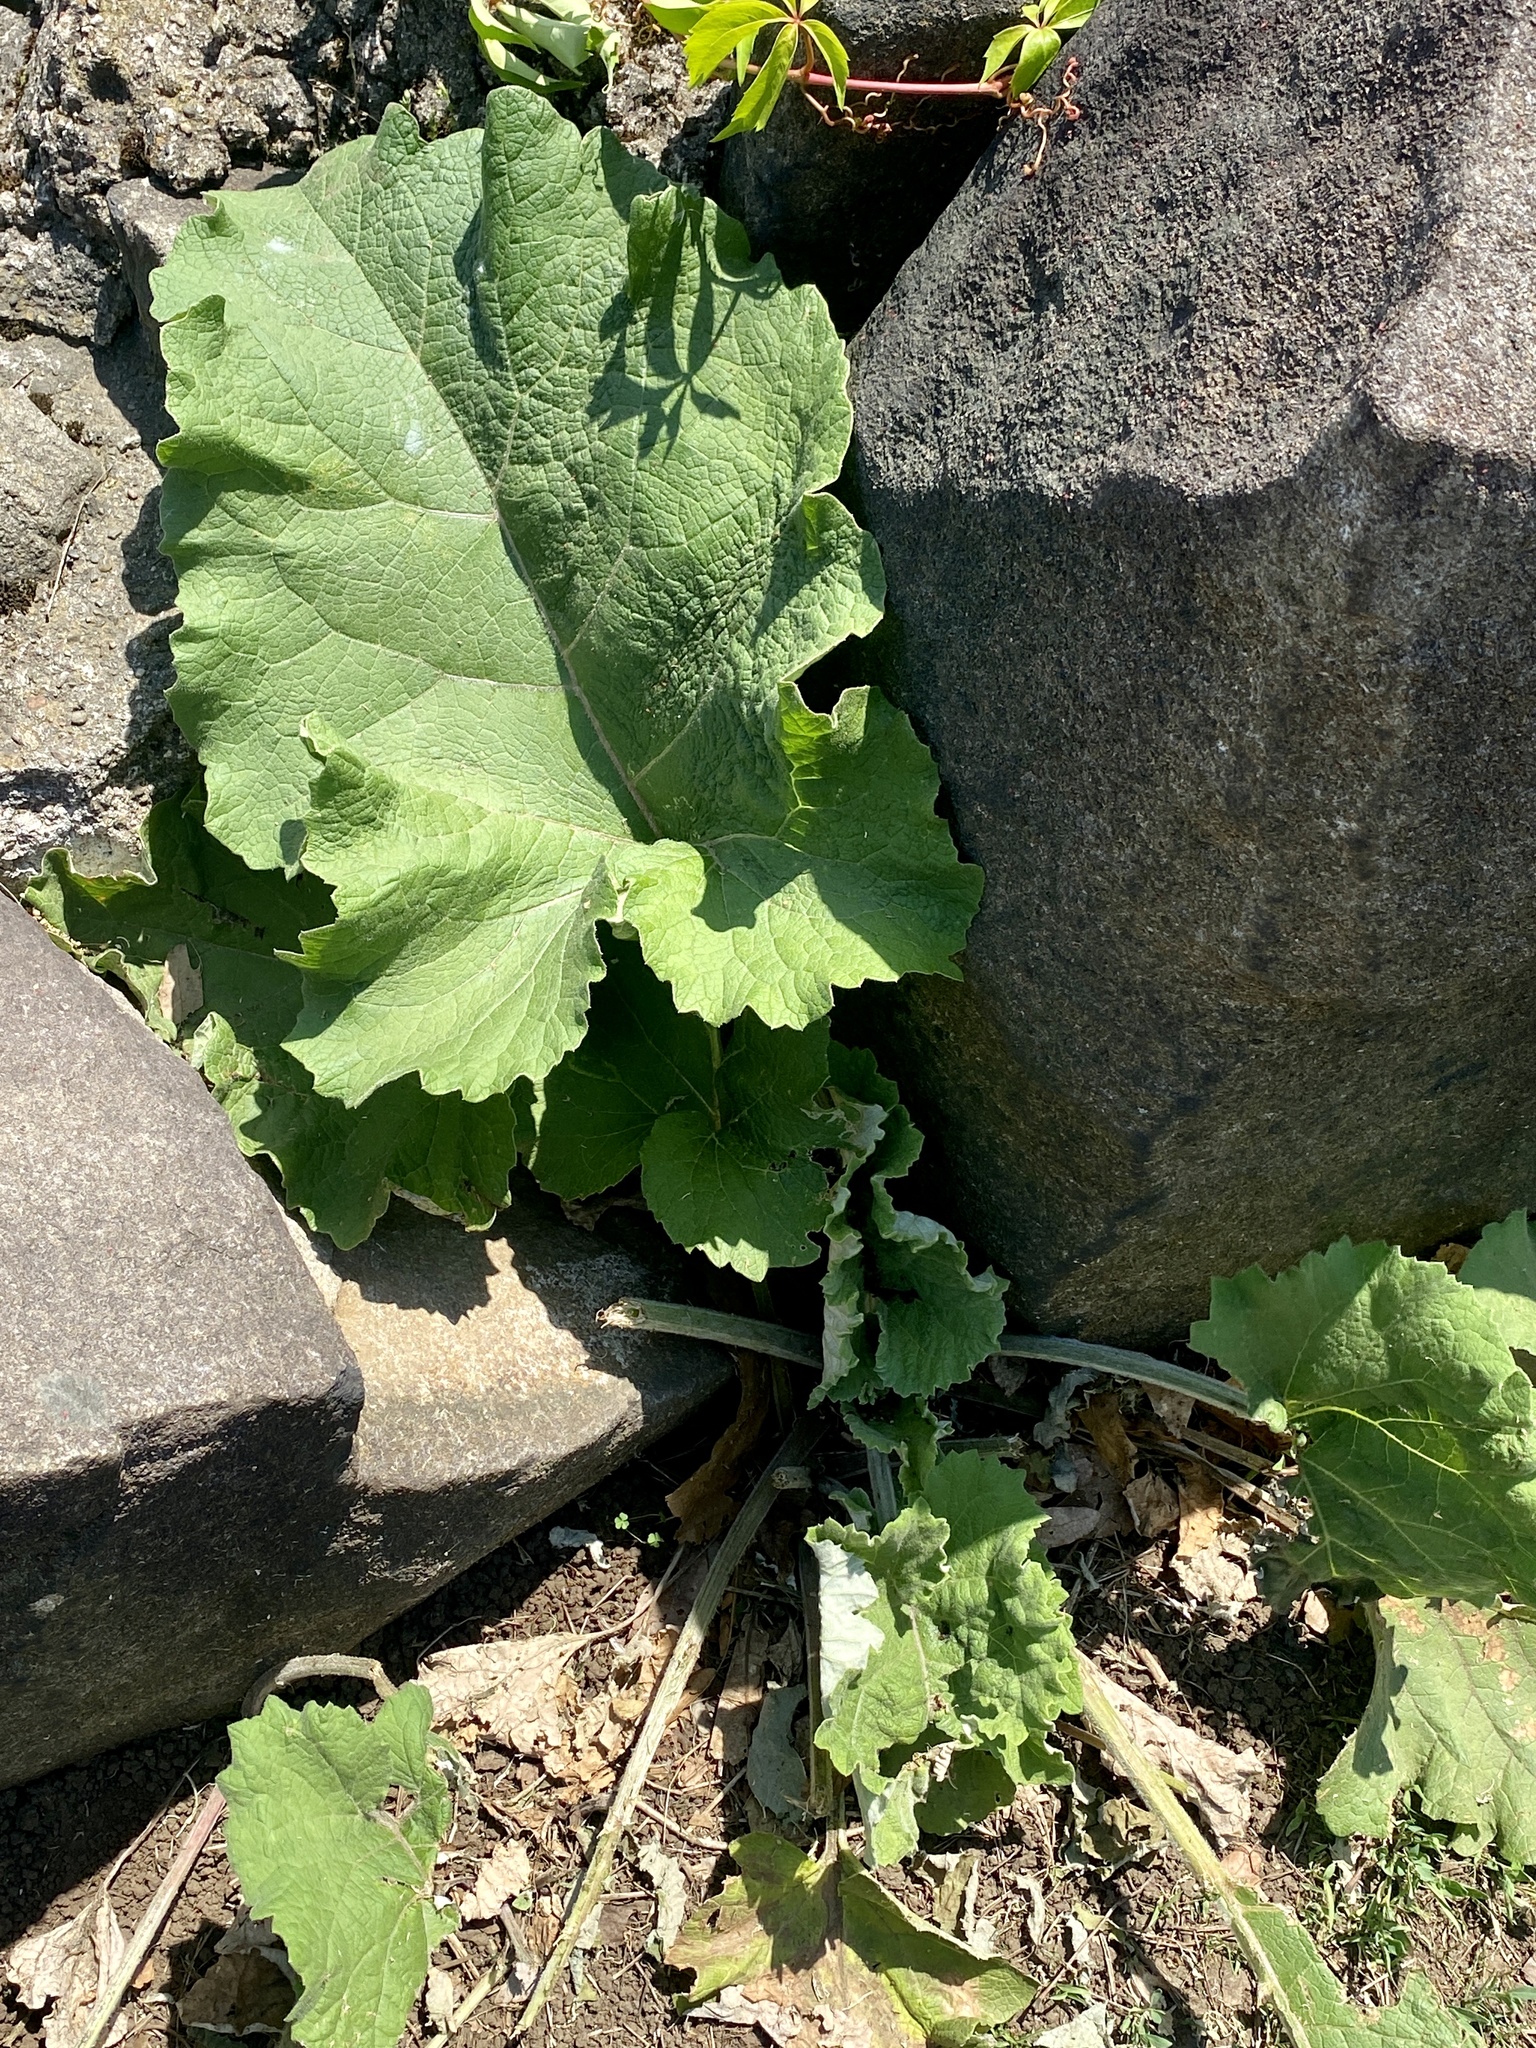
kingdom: Plantae
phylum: Tracheophyta
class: Magnoliopsida
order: Asterales
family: Asteraceae
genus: Arctium
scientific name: Arctium minus
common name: Lesser burdock
